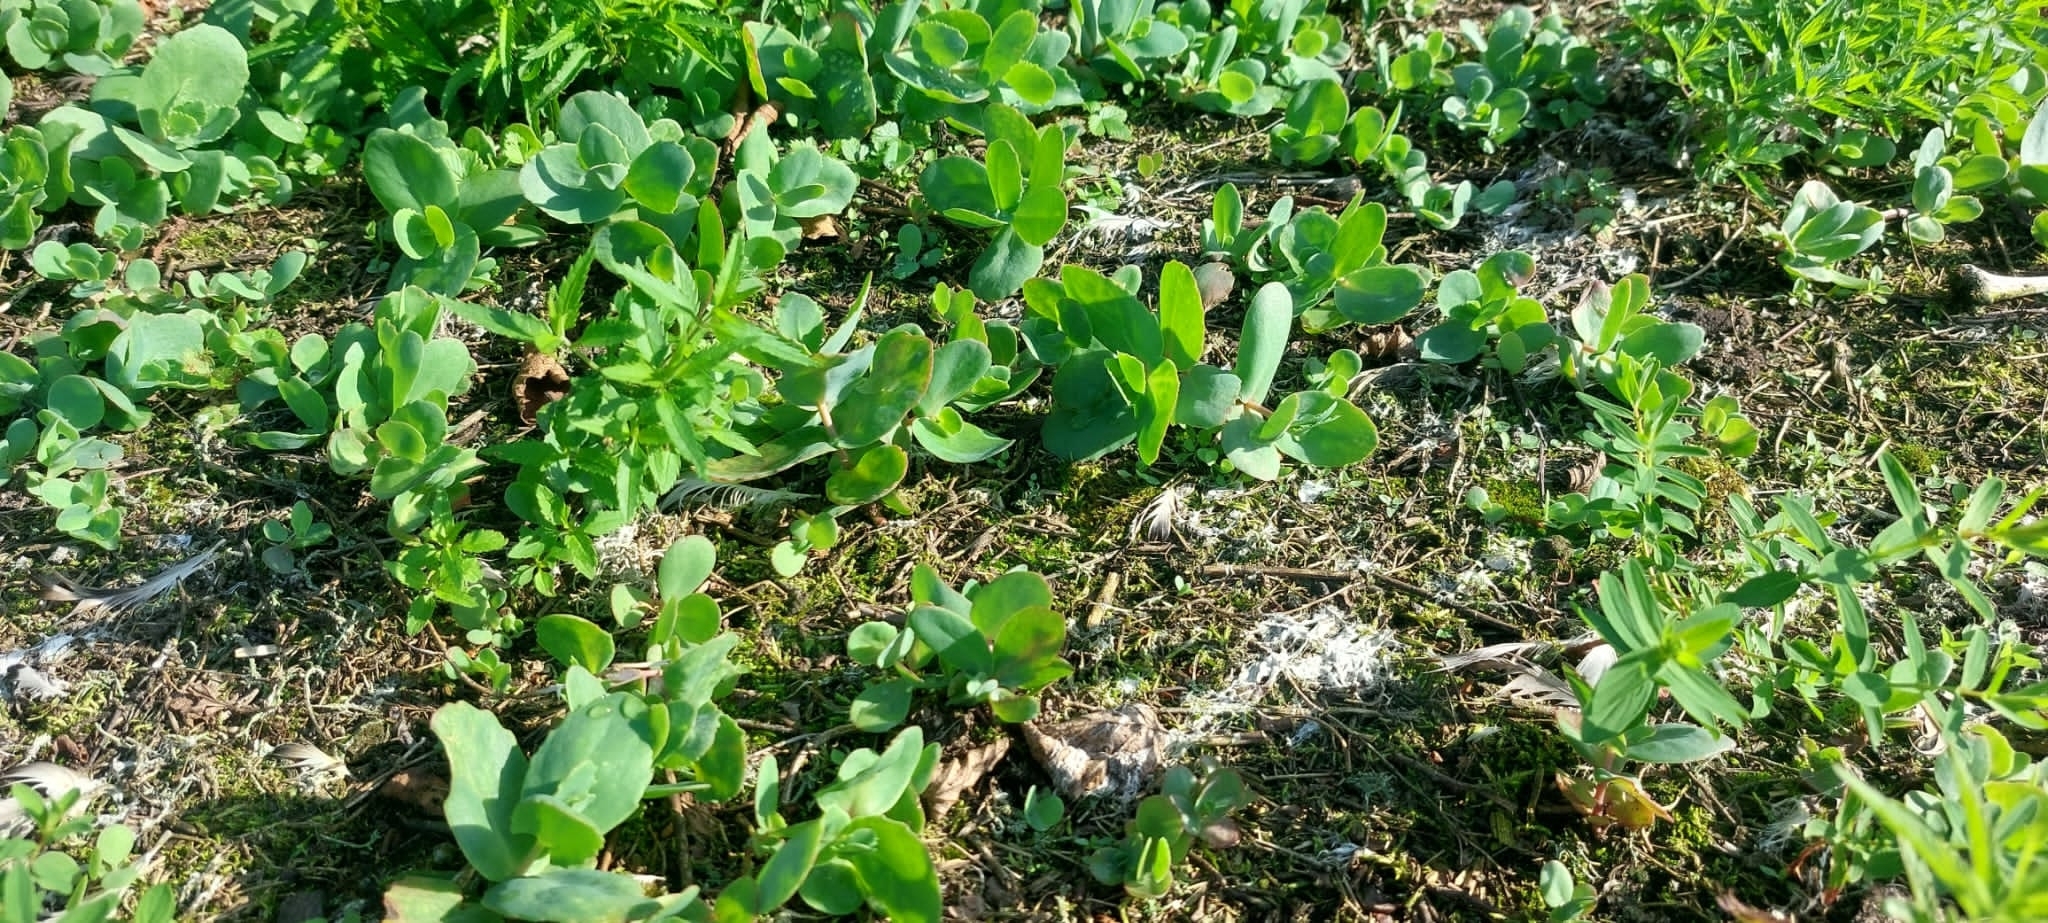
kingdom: Plantae
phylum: Tracheophyta
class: Magnoliopsida
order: Saxifragales
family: Crassulaceae
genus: Hylotelephium
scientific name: Hylotelephium maximum
